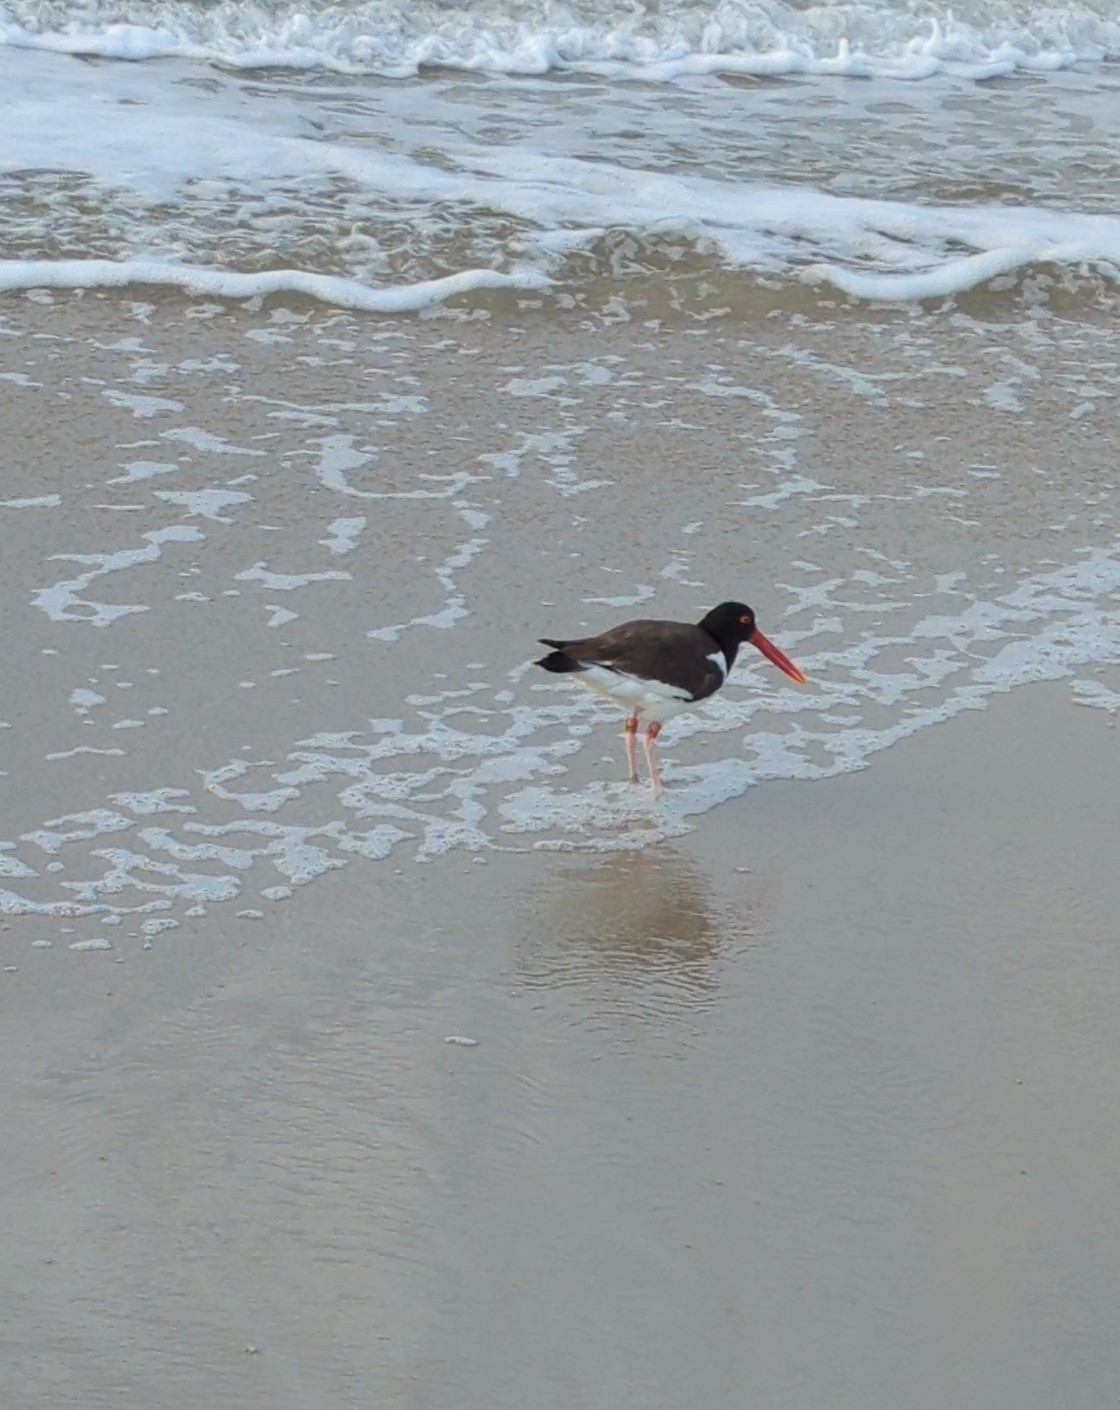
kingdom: Animalia
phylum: Chordata
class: Aves
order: Charadriiformes
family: Haematopodidae
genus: Haematopus
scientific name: Haematopus palliatus
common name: American oystercatcher
